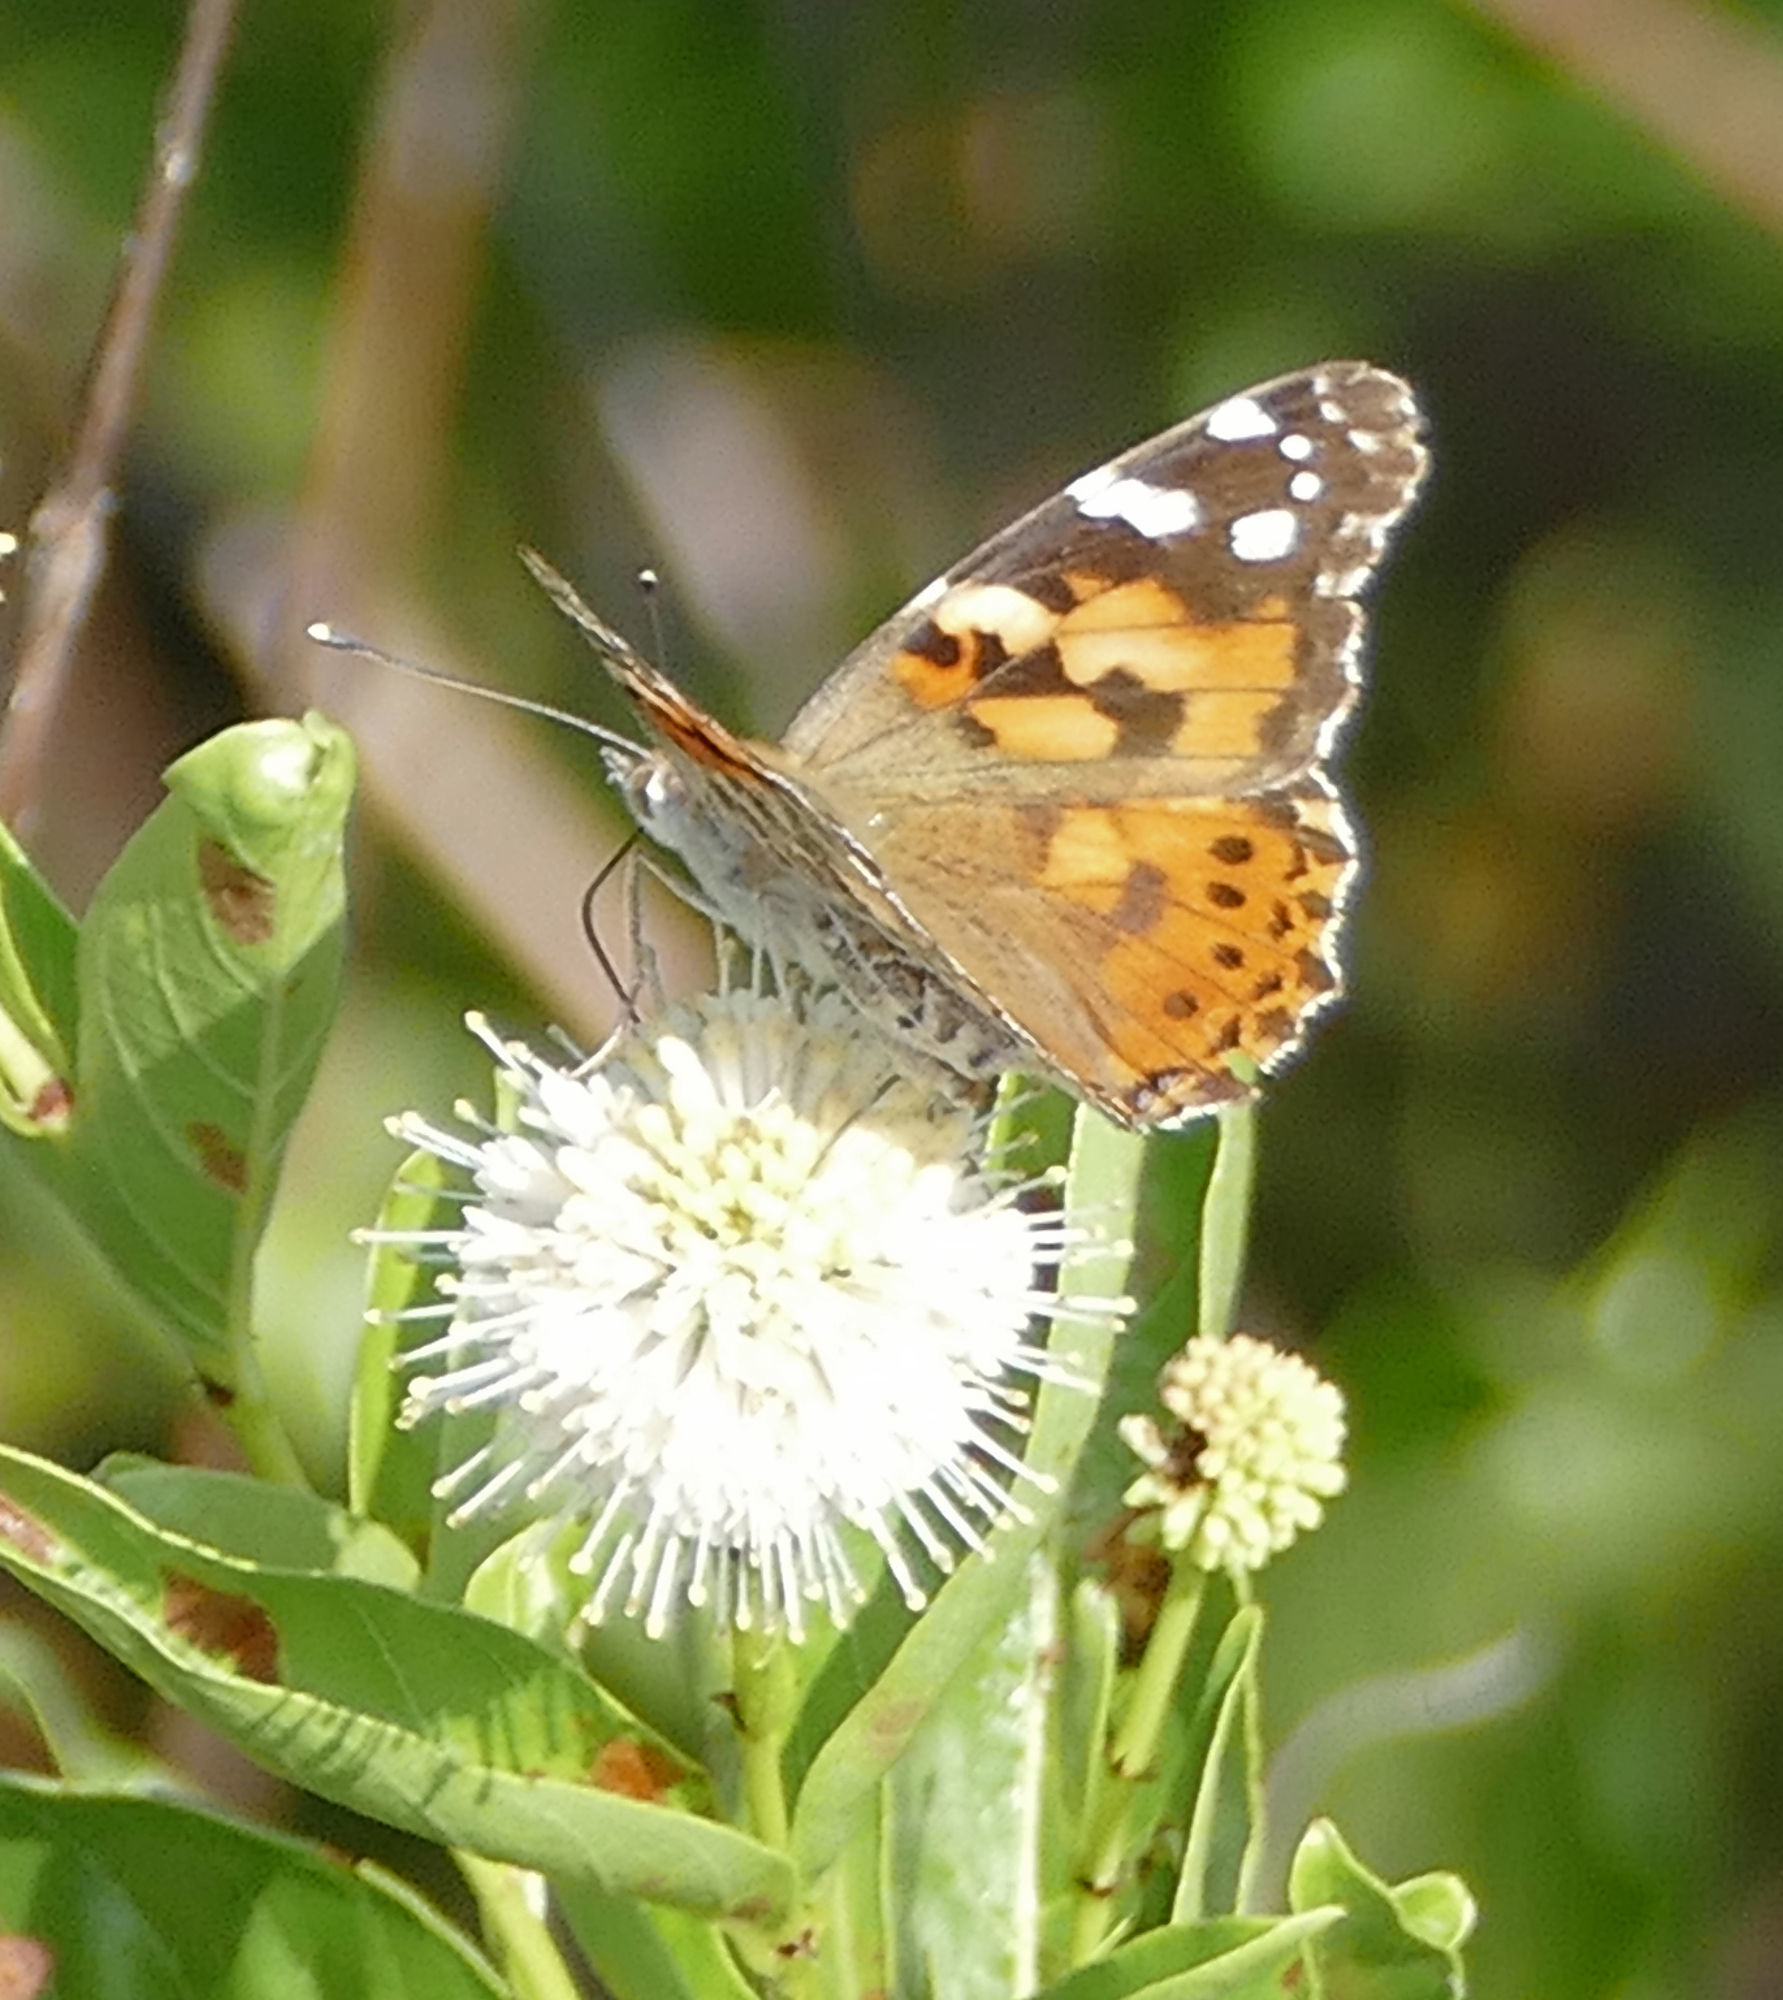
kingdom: Animalia
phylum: Arthropoda
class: Insecta
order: Lepidoptera
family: Nymphalidae
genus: Vanessa
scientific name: Vanessa cardui
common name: Painted lady
